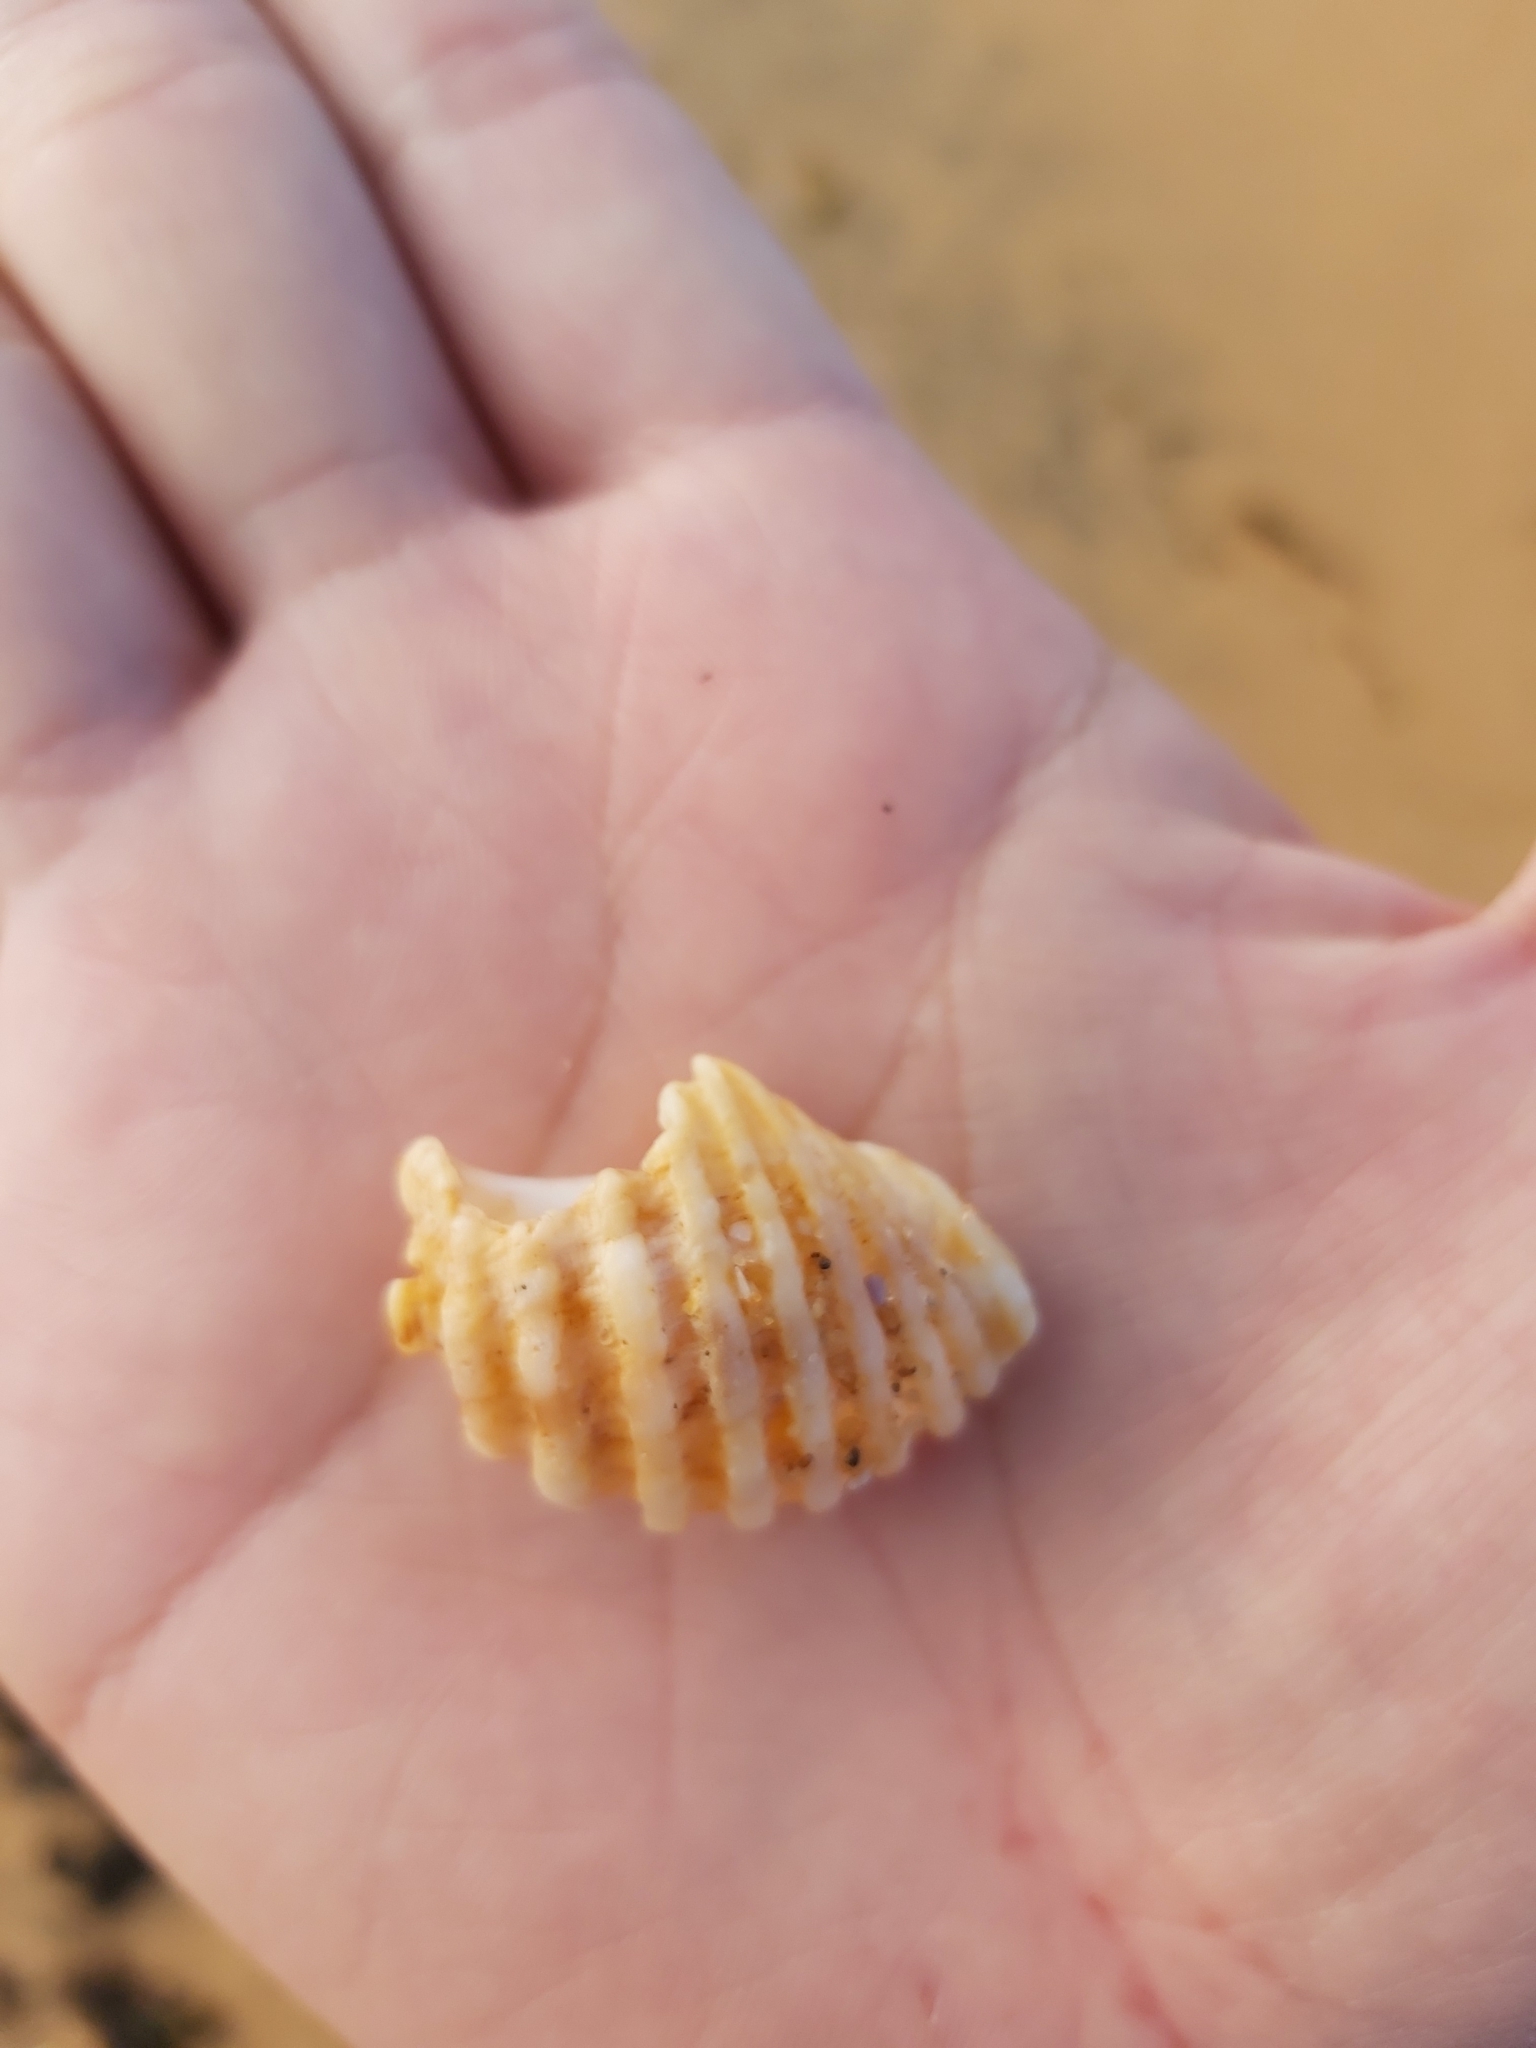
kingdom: Animalia
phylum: Mollusca
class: Gastropoda
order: Neogastropoda
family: Muricidae
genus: Dicathais
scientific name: Dicathais orbita
